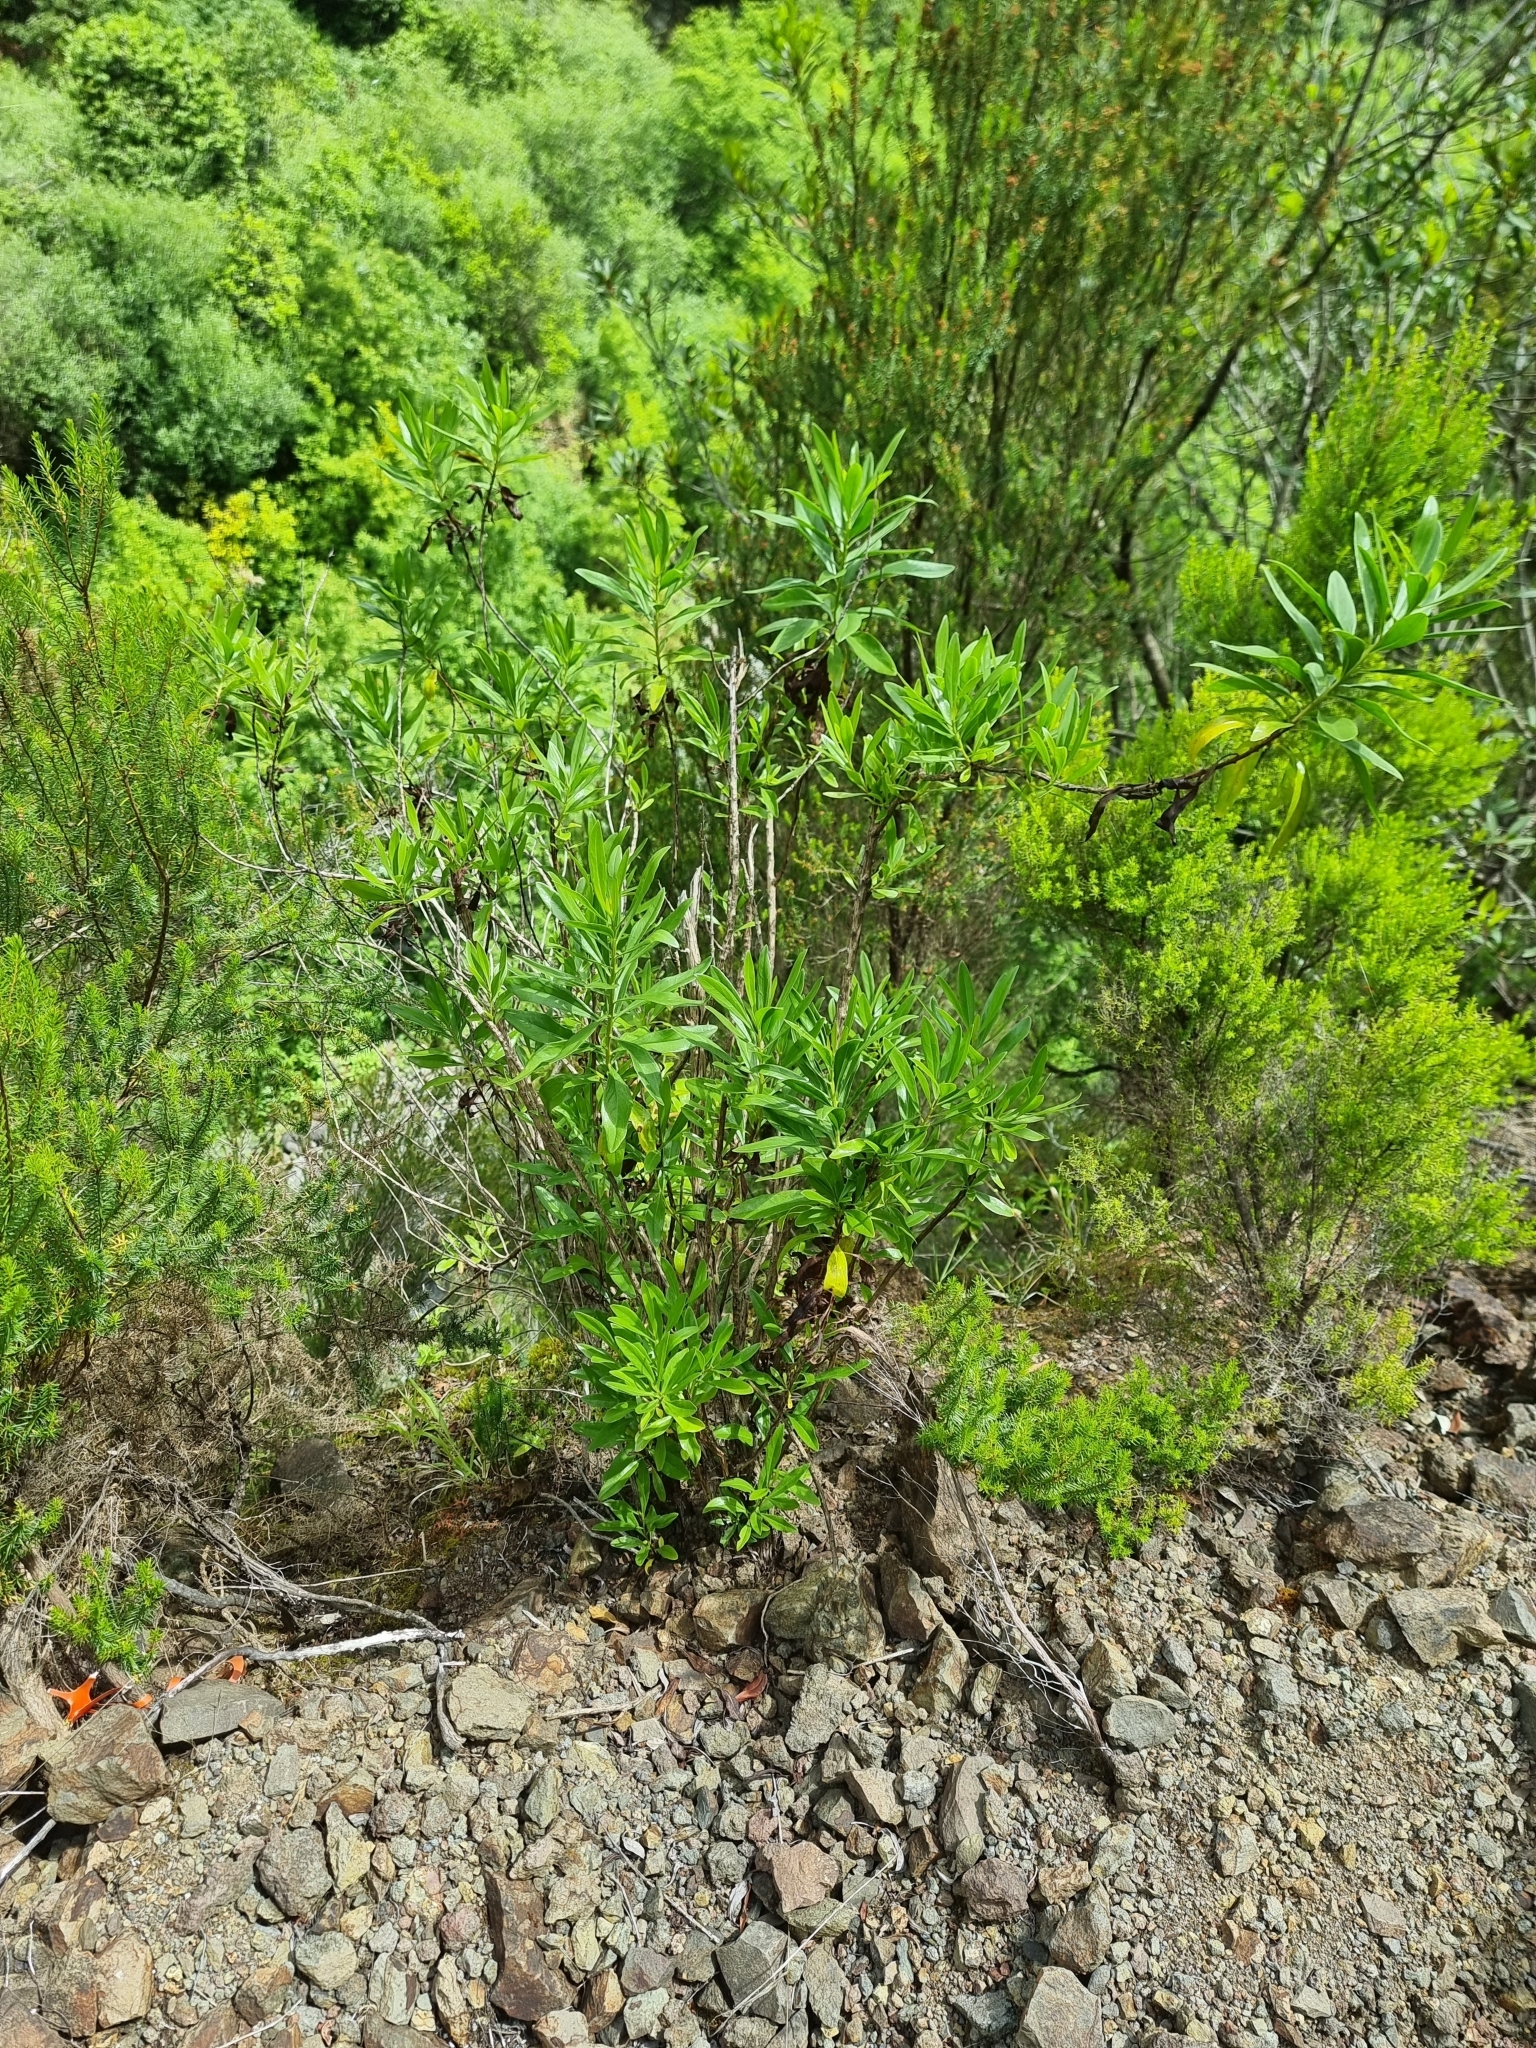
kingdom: Plantae
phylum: Tracheophyta
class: Magnoliopsida
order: Lamiales
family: Plantaginaceae
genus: Globularia
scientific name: Globularia salicina
